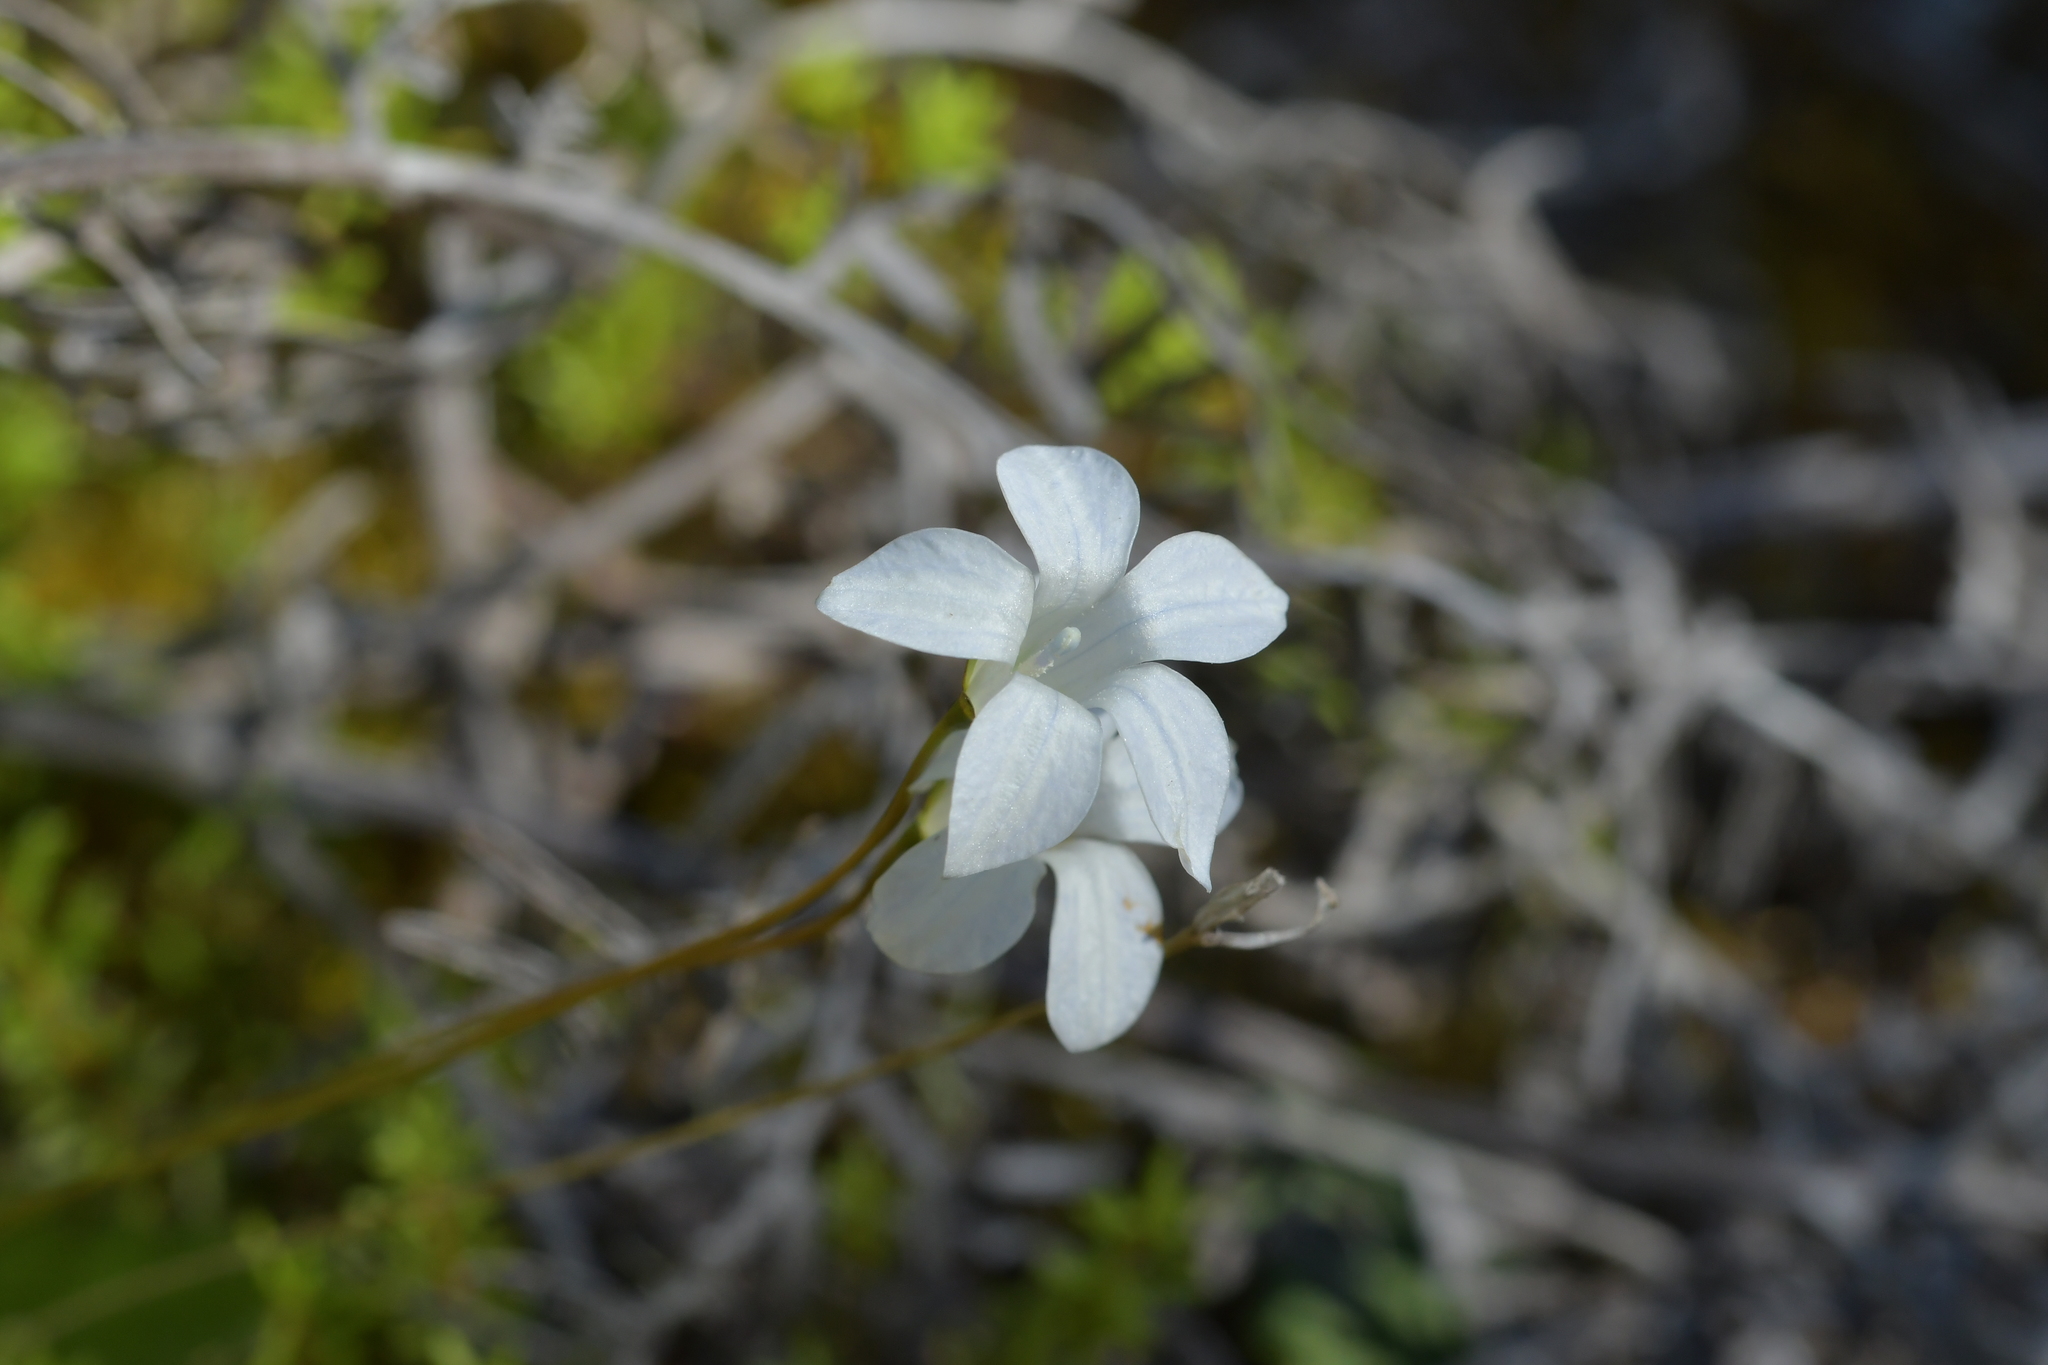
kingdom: Plantae
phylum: Tracheophyta
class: Magnoliopsida
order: Asterales
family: Campanulaceae
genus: Wahlenbergia
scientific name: Wahlenbergia albomarginata
